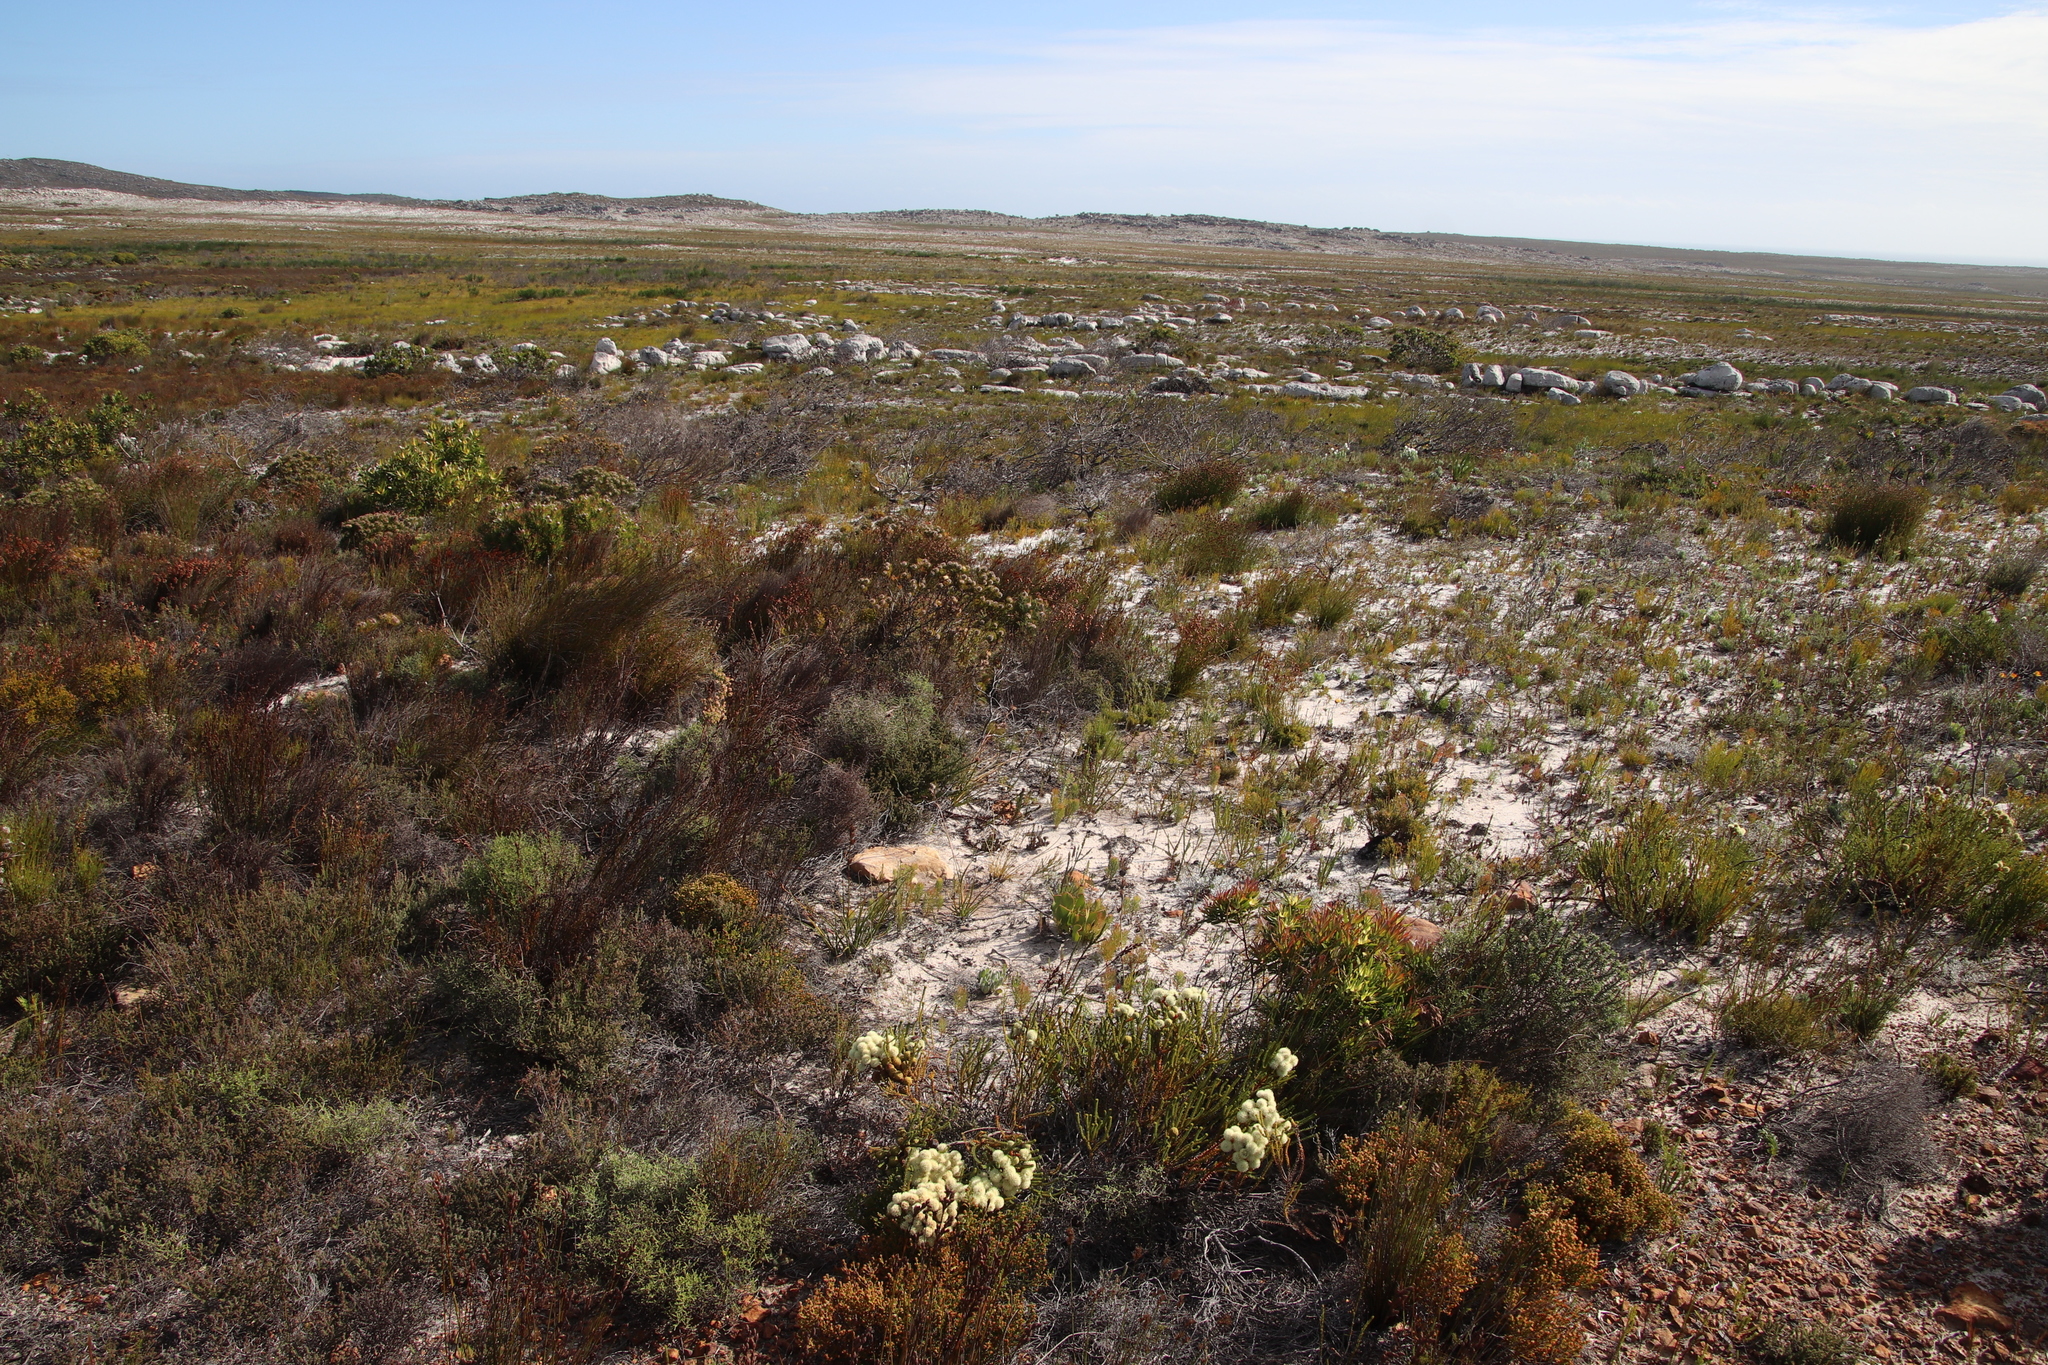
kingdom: Plantae
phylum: Tracheophyta
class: Magnoliopsida
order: Bruniales
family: Bruniaceae
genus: Berzelia
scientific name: Berzelia abrotanoides
